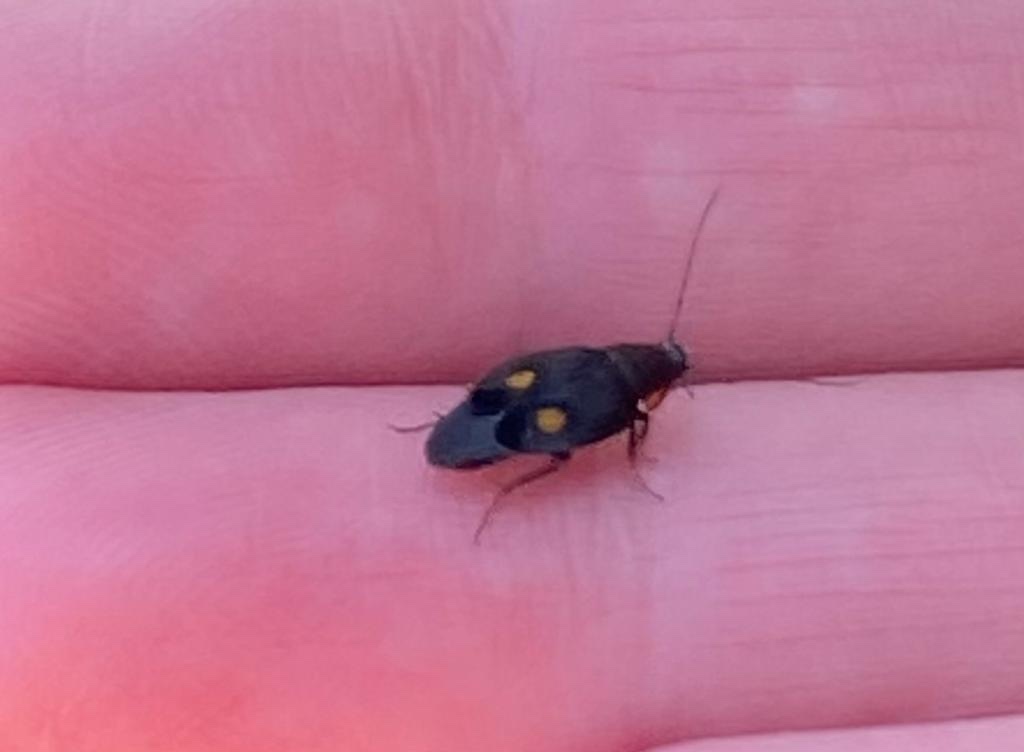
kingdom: Animalia
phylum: Arthropoda
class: Insecta
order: Blattodea
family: Corydiidae
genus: Euthyrrhapha
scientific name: Euthyrrhapha pacifica
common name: Pacific cockroach
